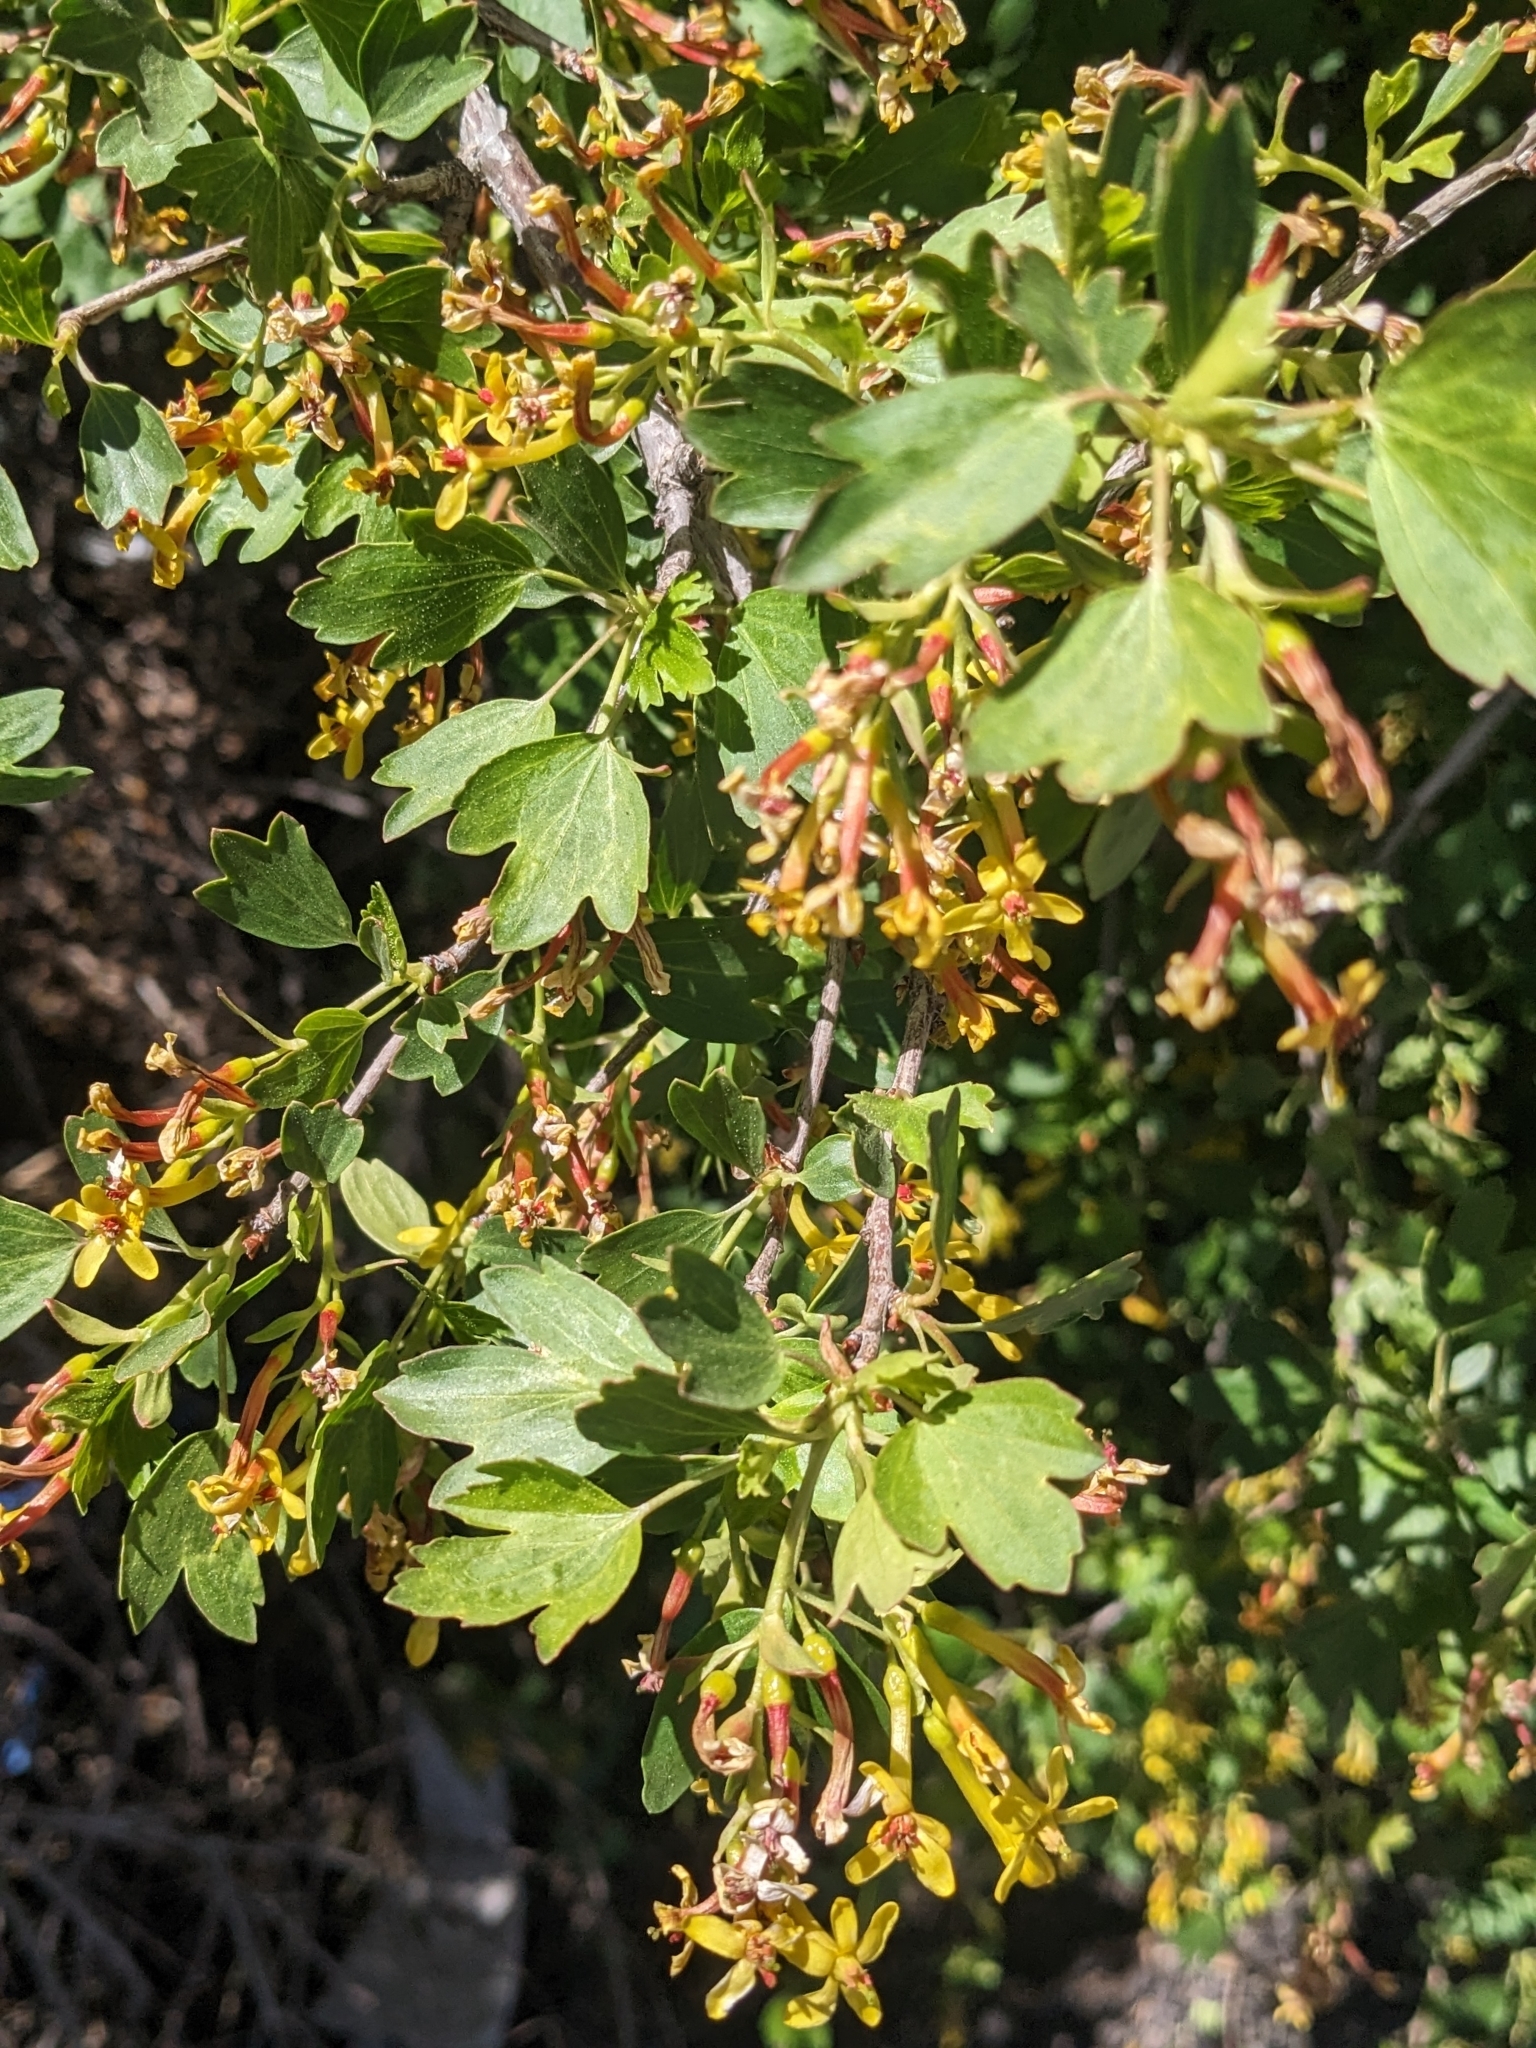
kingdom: Plantae
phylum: Tracheophyta
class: Magnoliopsida
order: Saxifragales
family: Grossulariaceae
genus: Ribes
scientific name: Ribes aureum
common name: Golden currant
